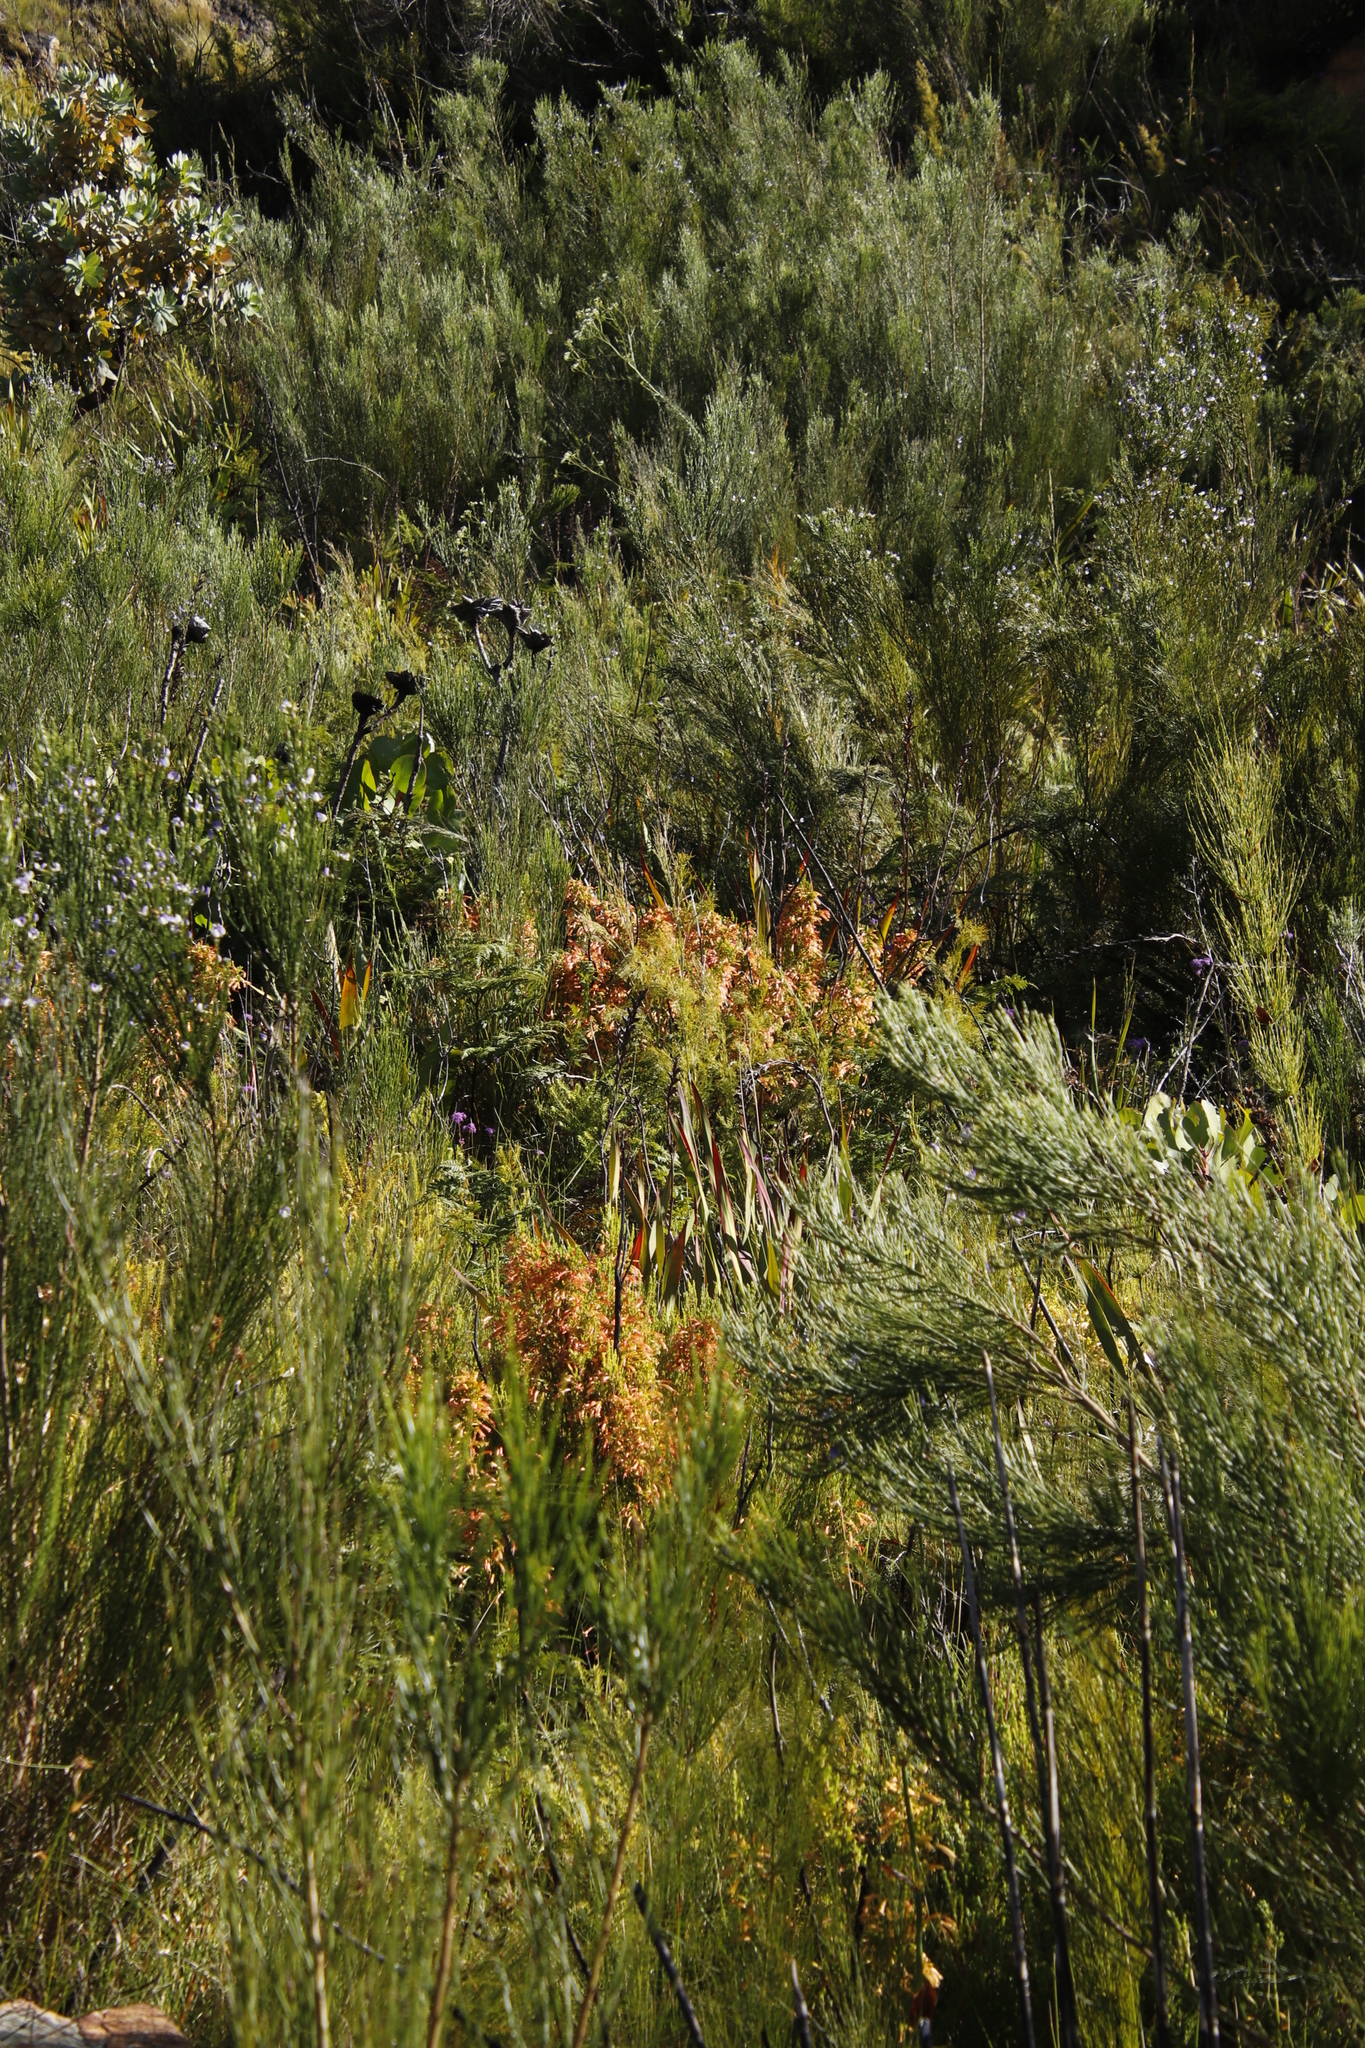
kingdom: Plantae
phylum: Tracheophyta
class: Magnoliopsida
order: Ericales
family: Ericaceae
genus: Erica
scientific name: Erica curviflora
